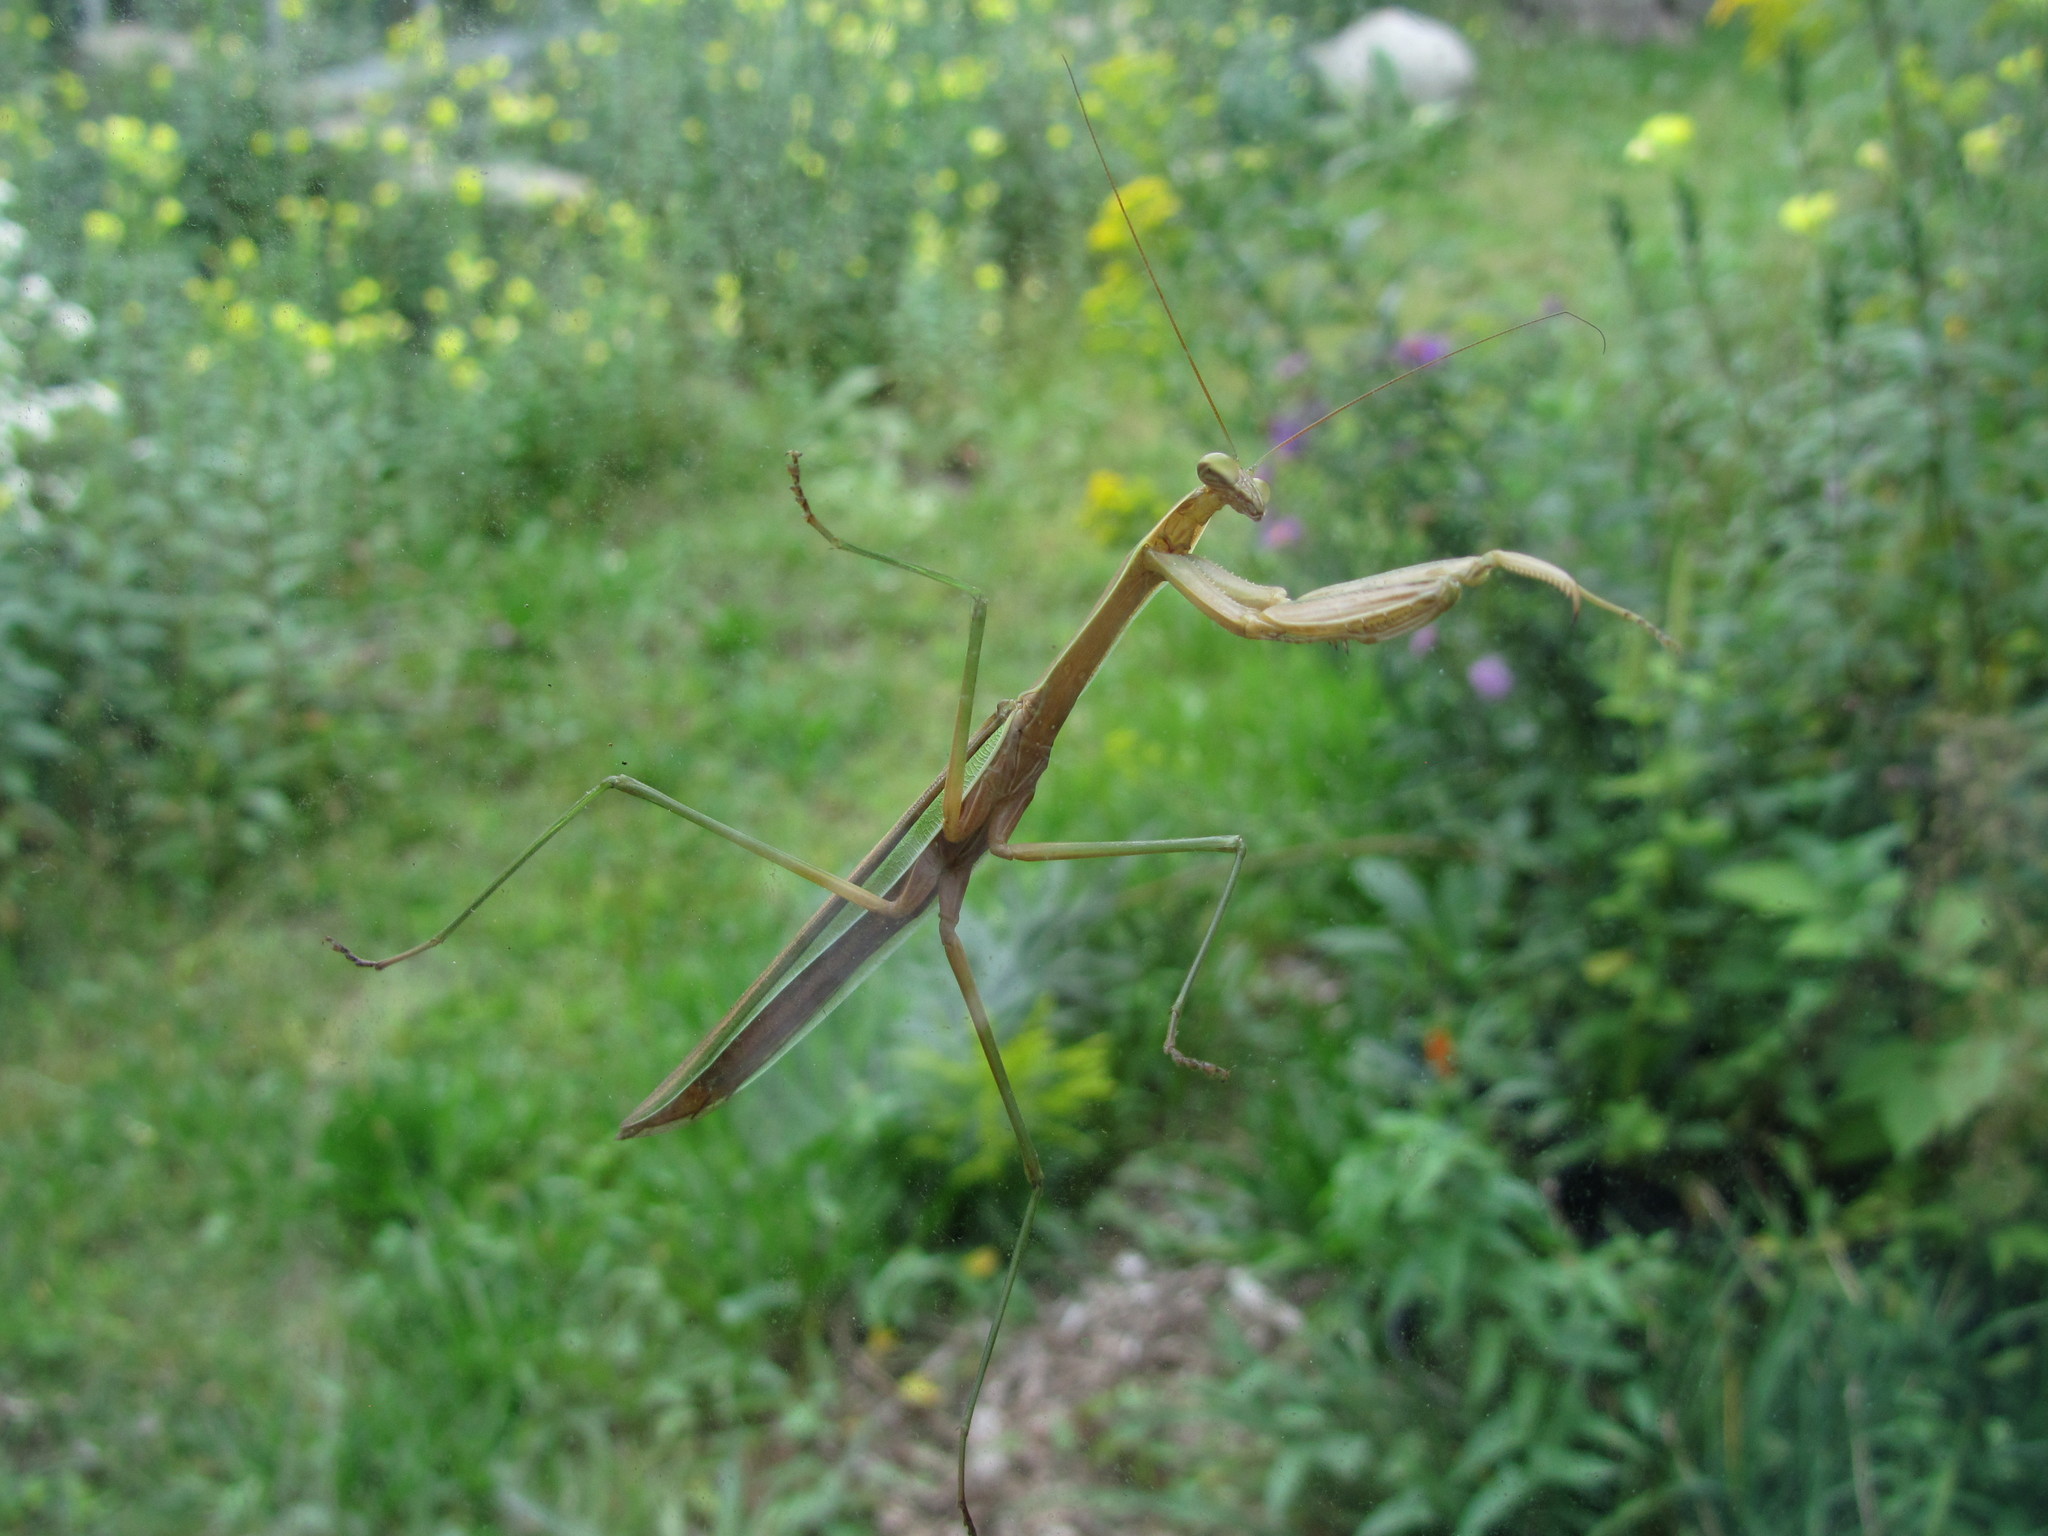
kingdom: Animalia
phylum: Arthropoda
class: Insecta
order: Mantodea
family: Mantidae
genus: Tenodera
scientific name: Tenodera sinensis
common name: Chinese mantis
